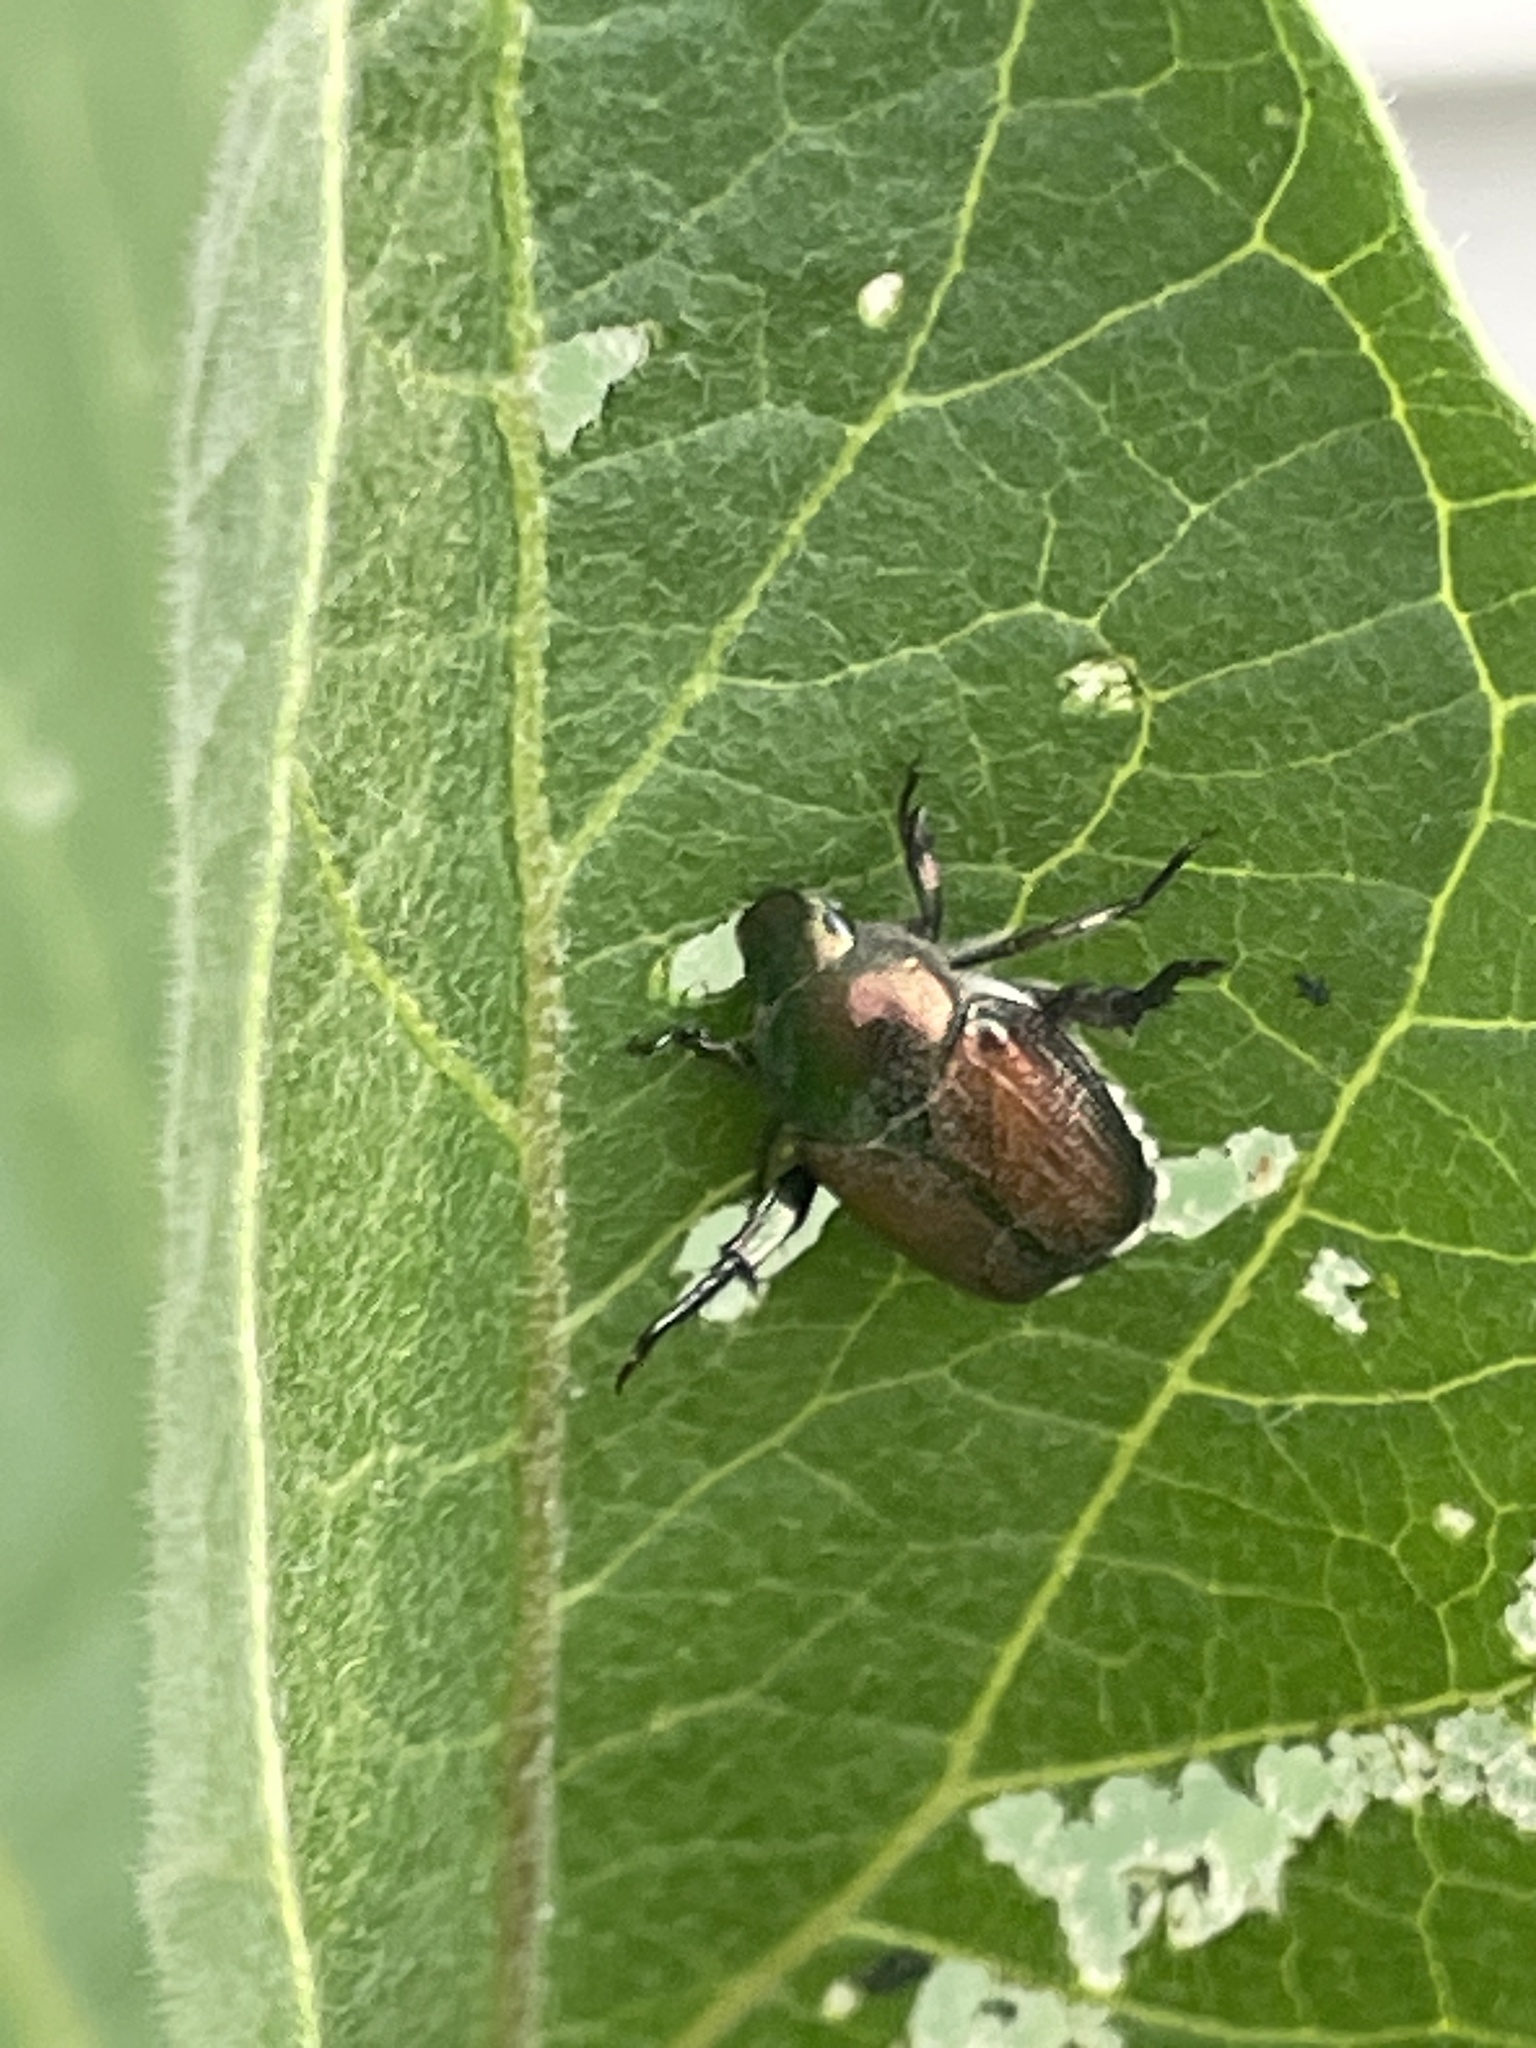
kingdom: Animalia
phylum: Arthropoda
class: Insecta
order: Coleoptera
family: Scarabaeidae
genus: Popillia
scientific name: Popillia japonica
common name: Japanese beetle
